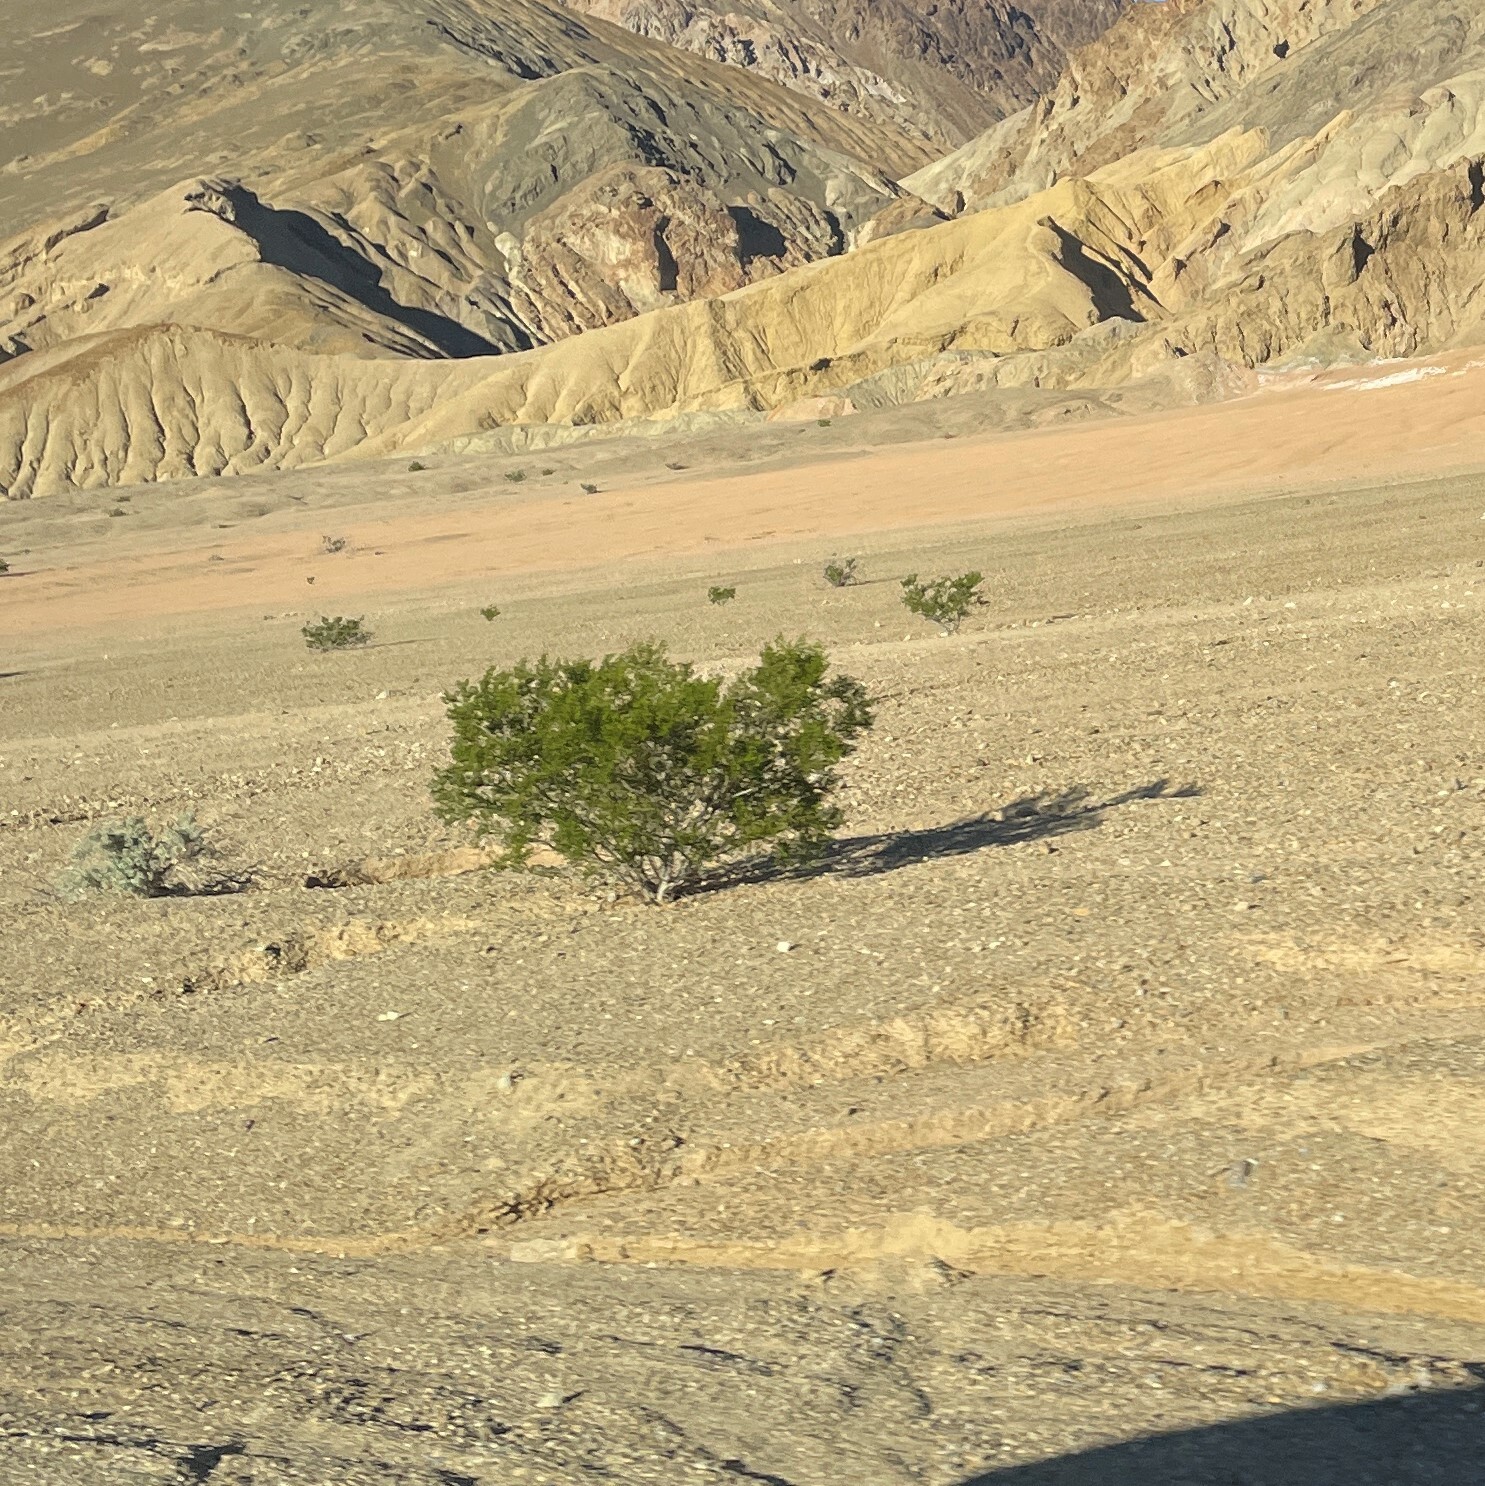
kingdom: Plantae
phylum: Tracheophyta
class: Magnoliopsida
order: Zygophyllales
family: Zygophyllaceae
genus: Larrea
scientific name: Larrea tridentata
